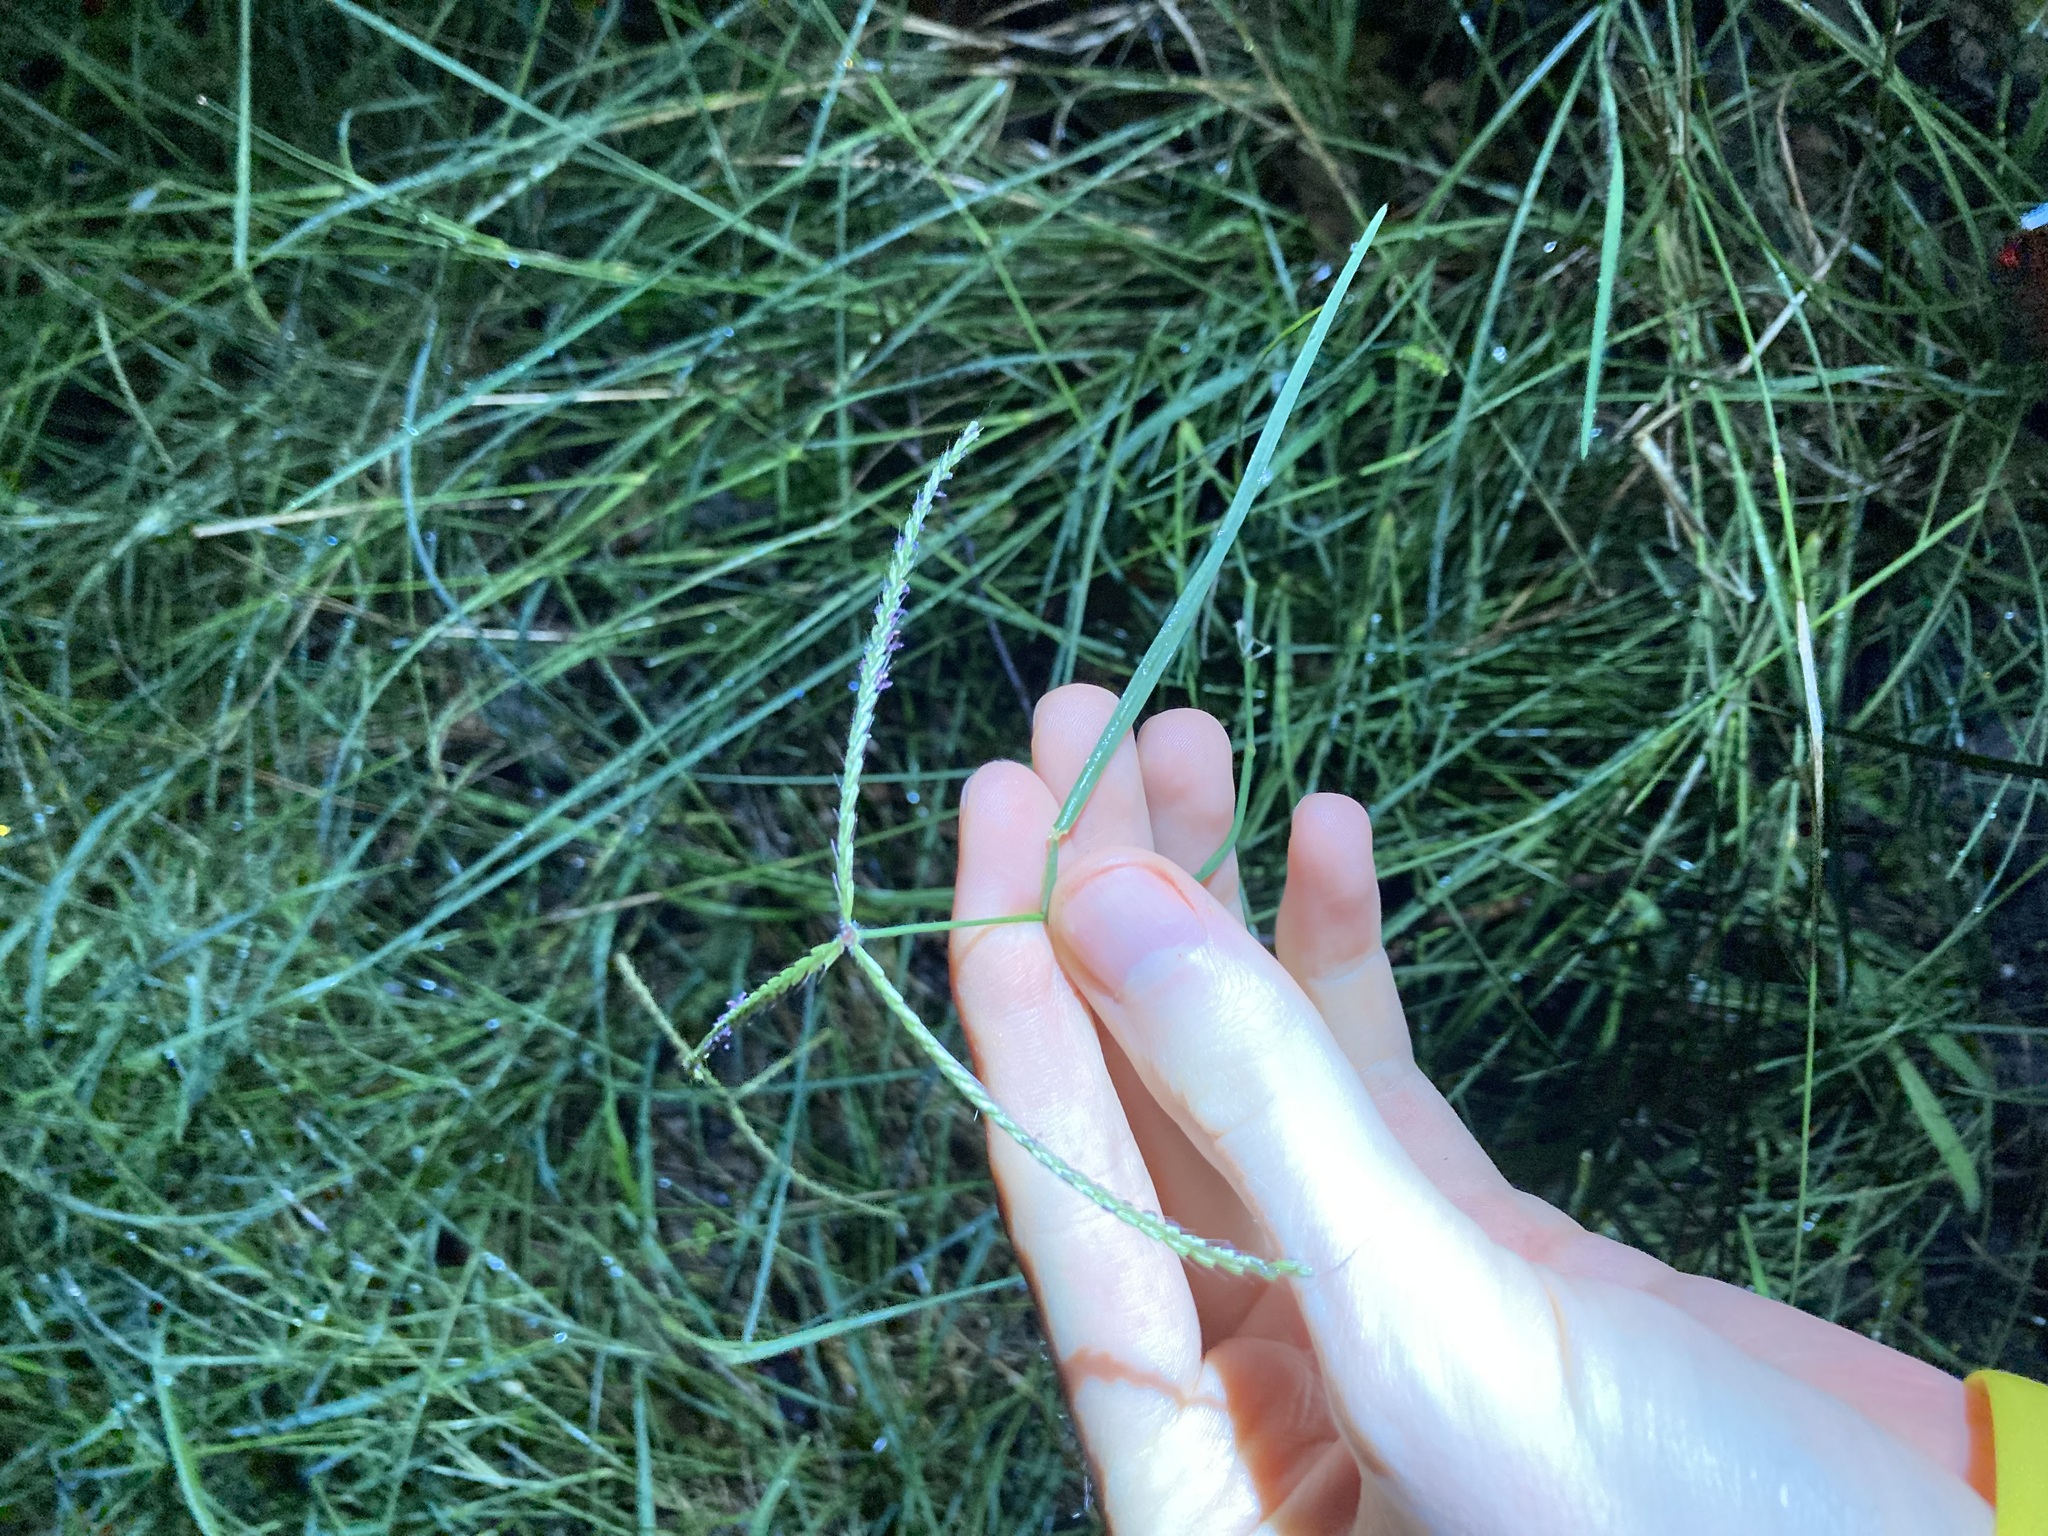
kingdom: Plantae
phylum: Tracheophyta
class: Liliopsida
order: Poales
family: Poaceae
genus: Chloris
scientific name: Chloris ventricosa
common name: Australian windmill grass
